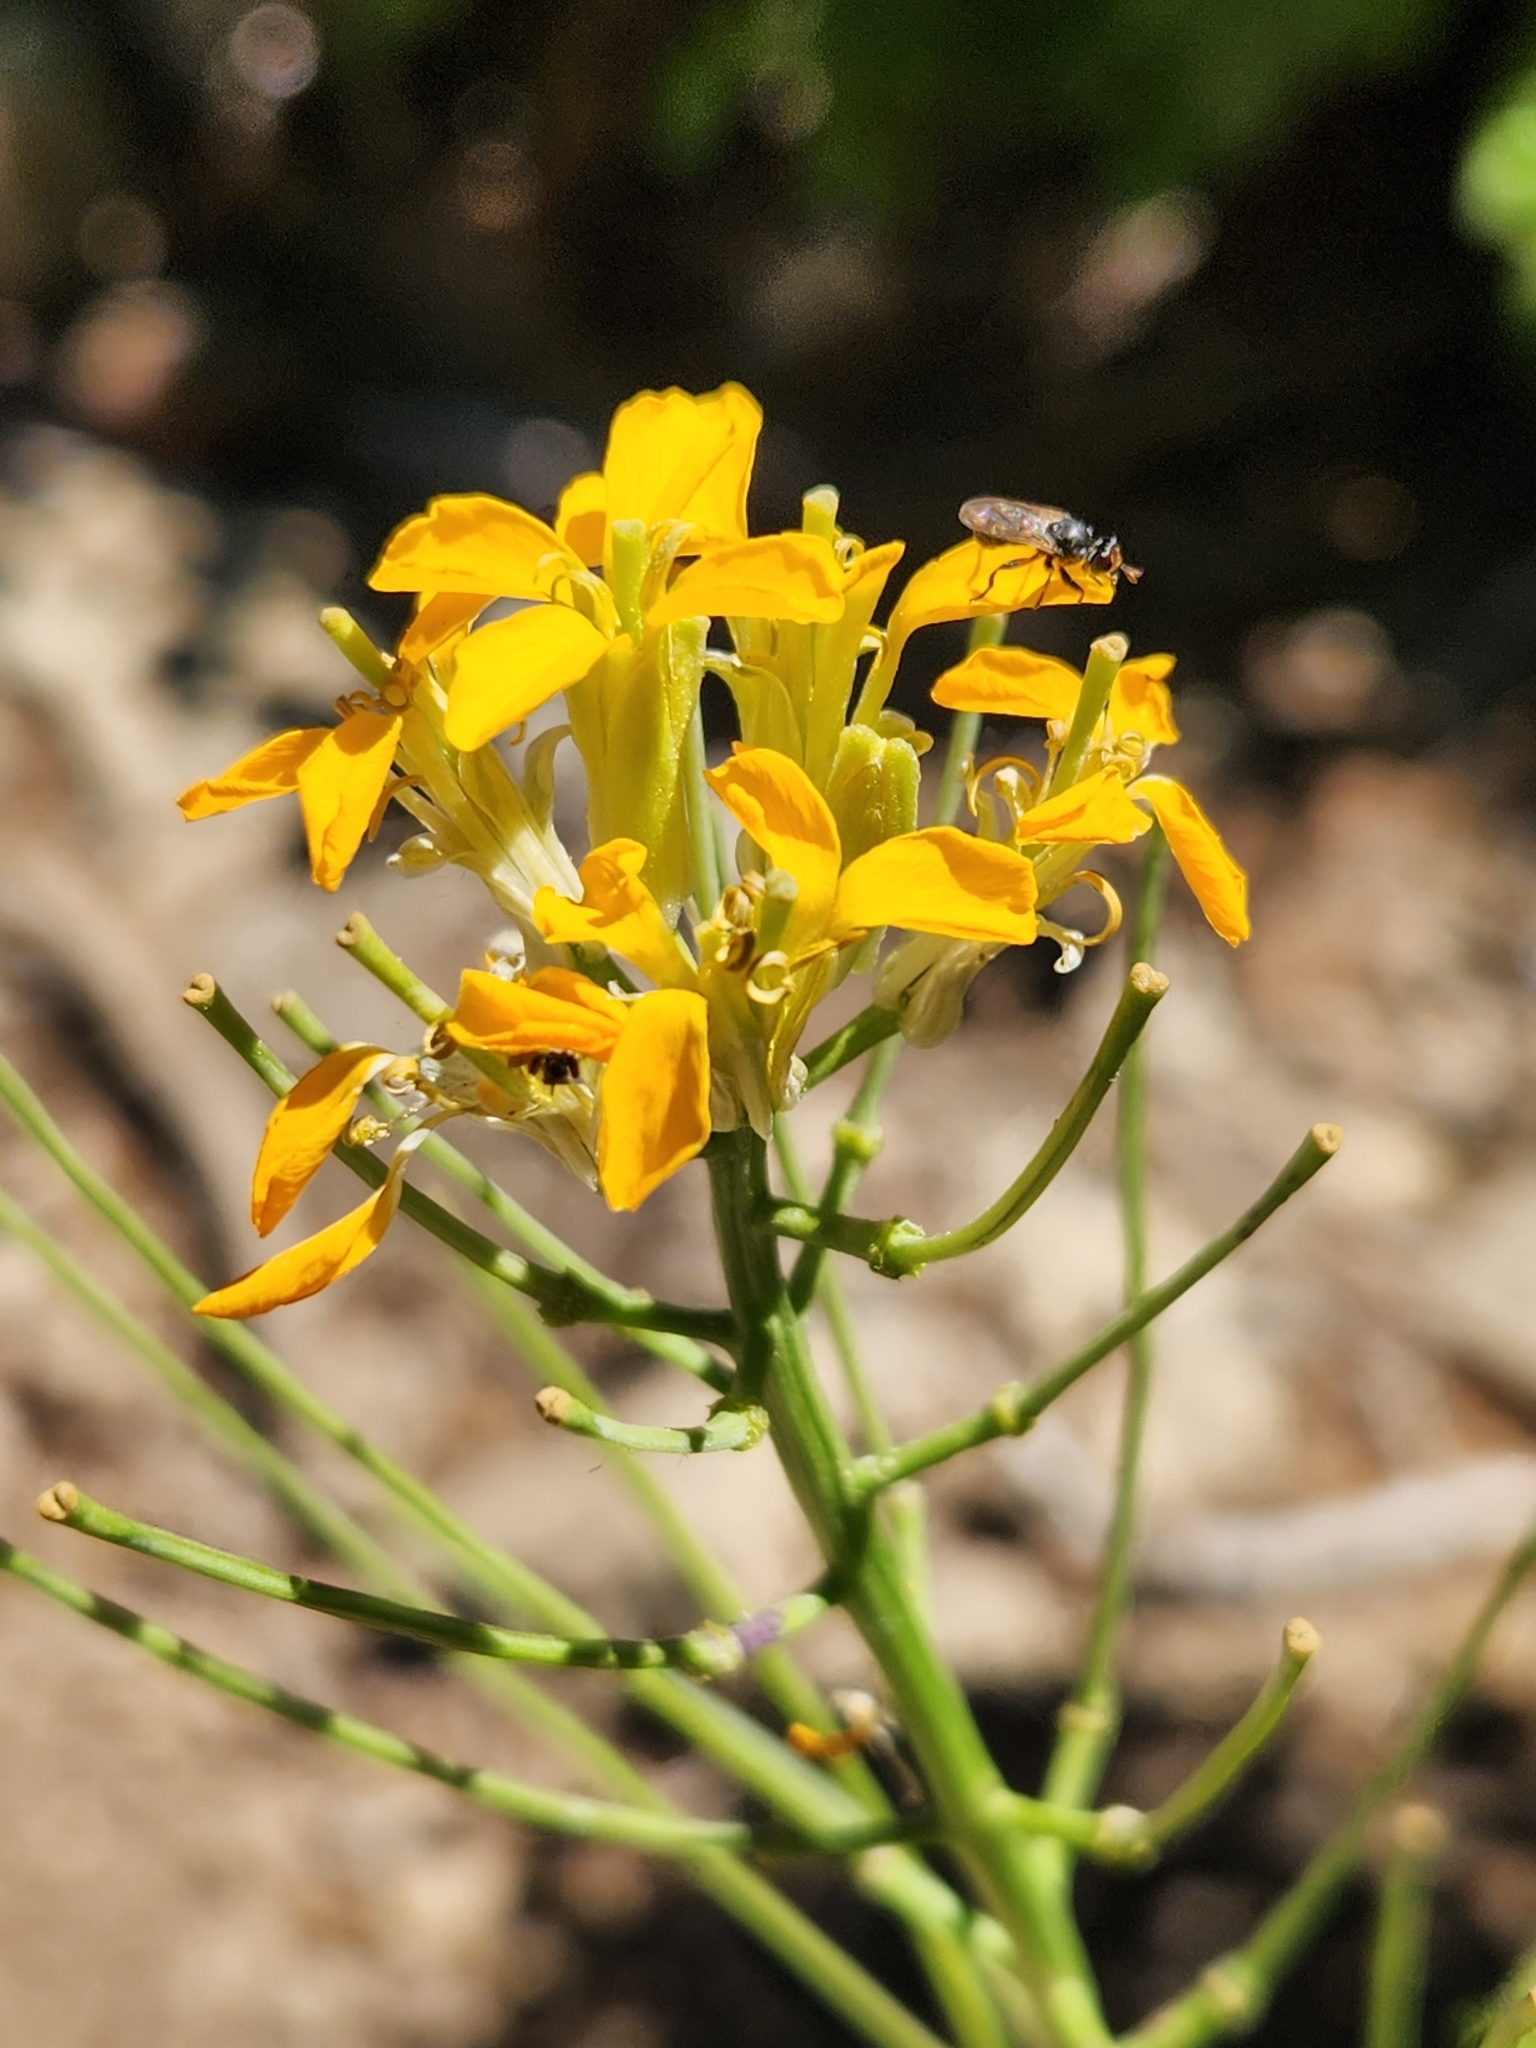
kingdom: Plantae
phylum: Tracheophyta
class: Magnoliopsida
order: Brassicales
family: Brassicaceae
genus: Erysimum
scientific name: Erysimum capitatum
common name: Western wallflower
